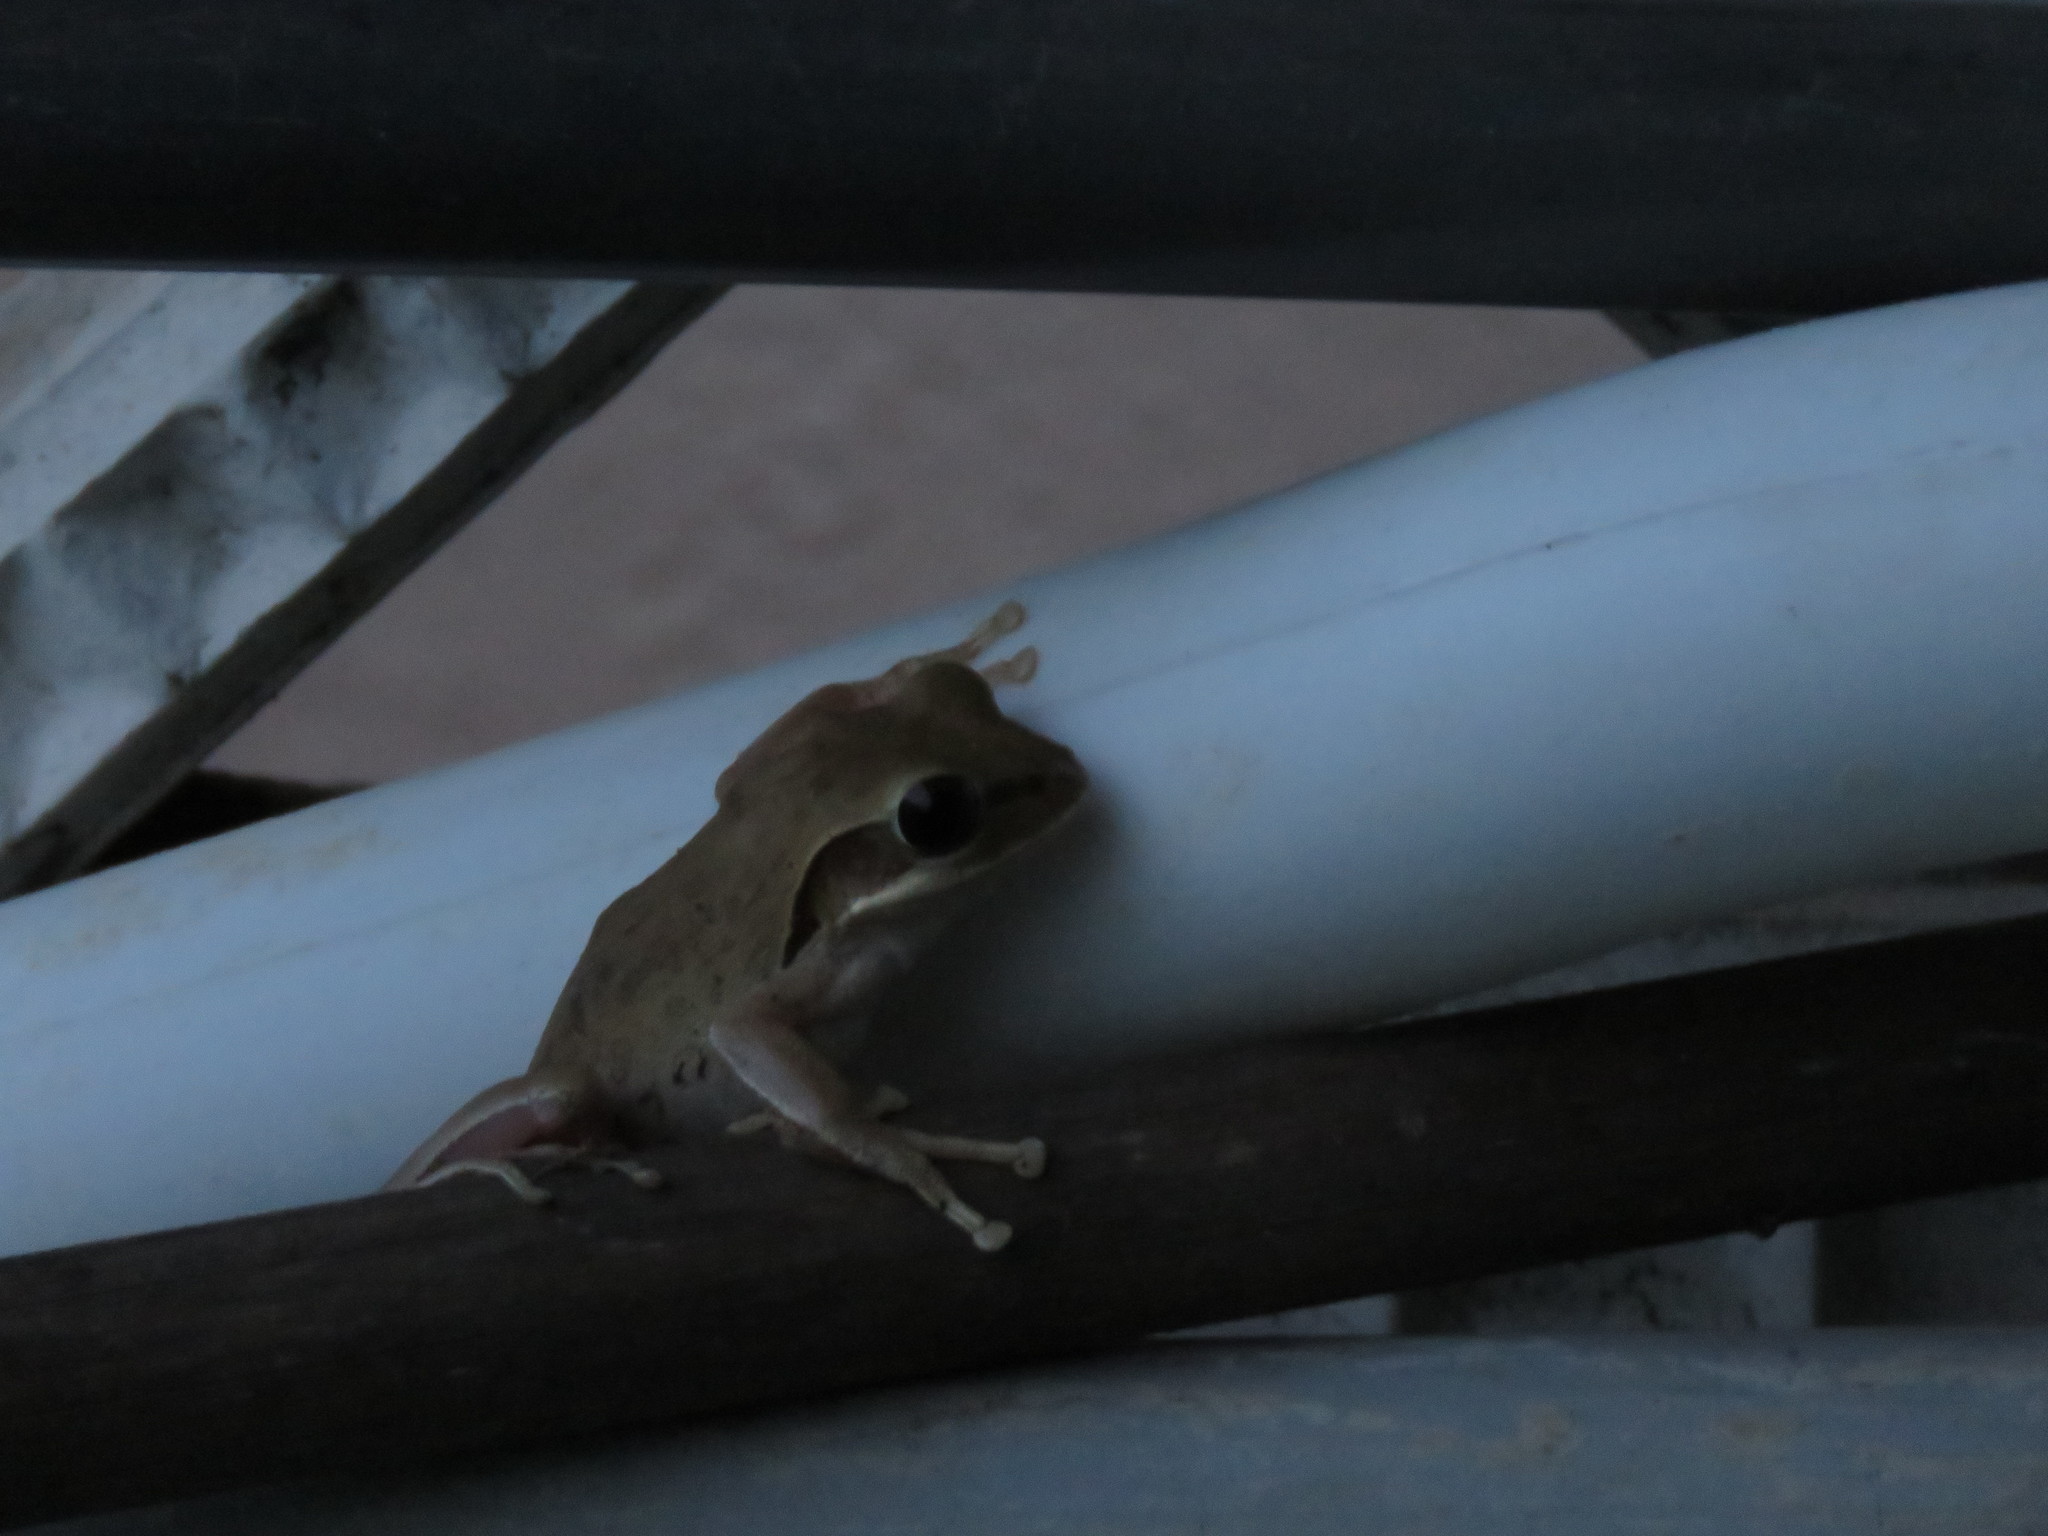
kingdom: Animalia
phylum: Chordata
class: Amphibia
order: Anura
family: Rhacophoridae
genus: Polypedates
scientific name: Polypedates maculatus
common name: Himalayan tree frog
